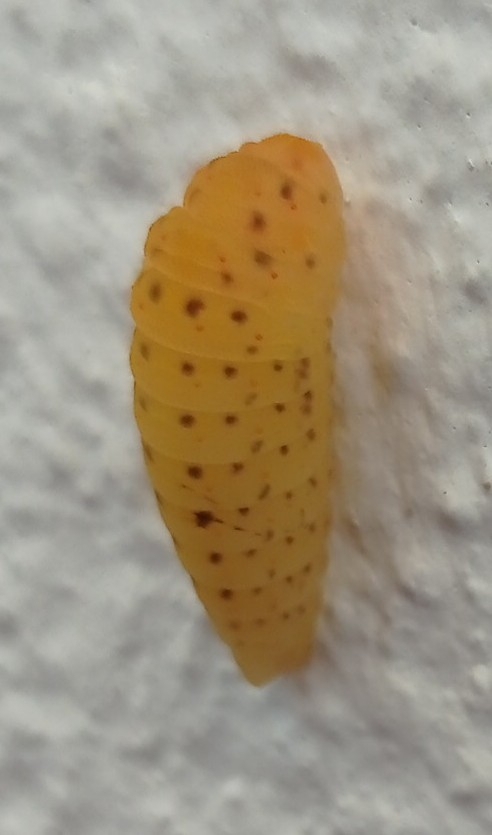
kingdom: Animalia
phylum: Arthropoda
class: Insecta
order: Lepidoptera
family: Papilionidae
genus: Iphiclides
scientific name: Iphiclides feisthamelii
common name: Iberian scarce swallowtail
